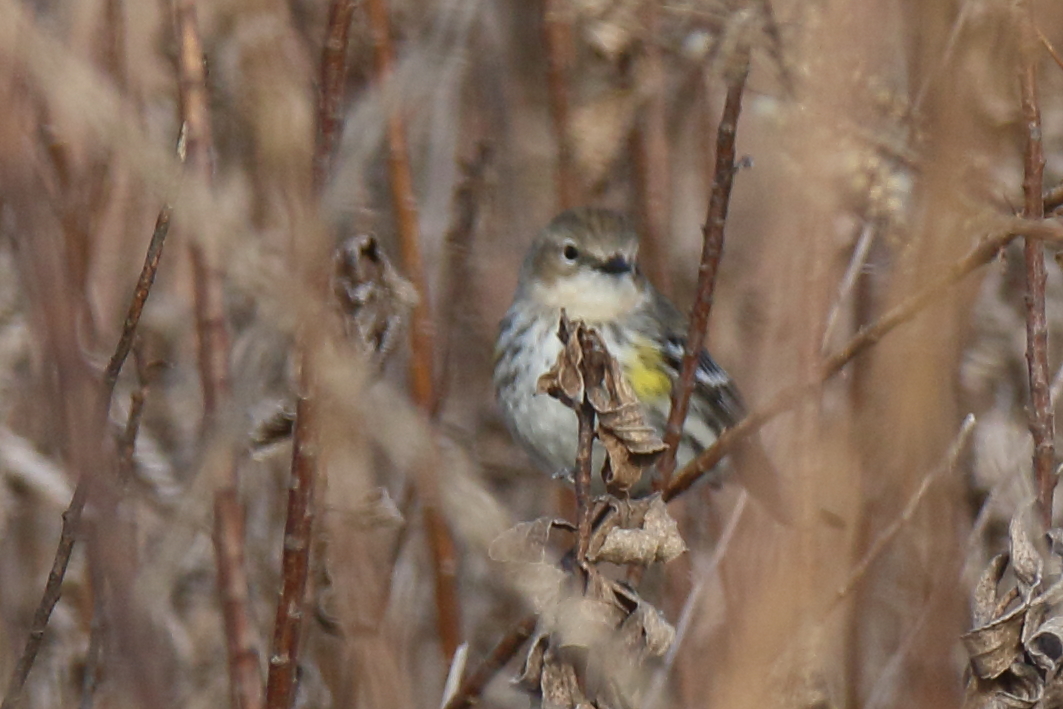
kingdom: Animalia
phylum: Chordata
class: Aves
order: Passeriformes
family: Parulidae
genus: Setophaga
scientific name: Setophaga coronata
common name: Myrtle warbler
